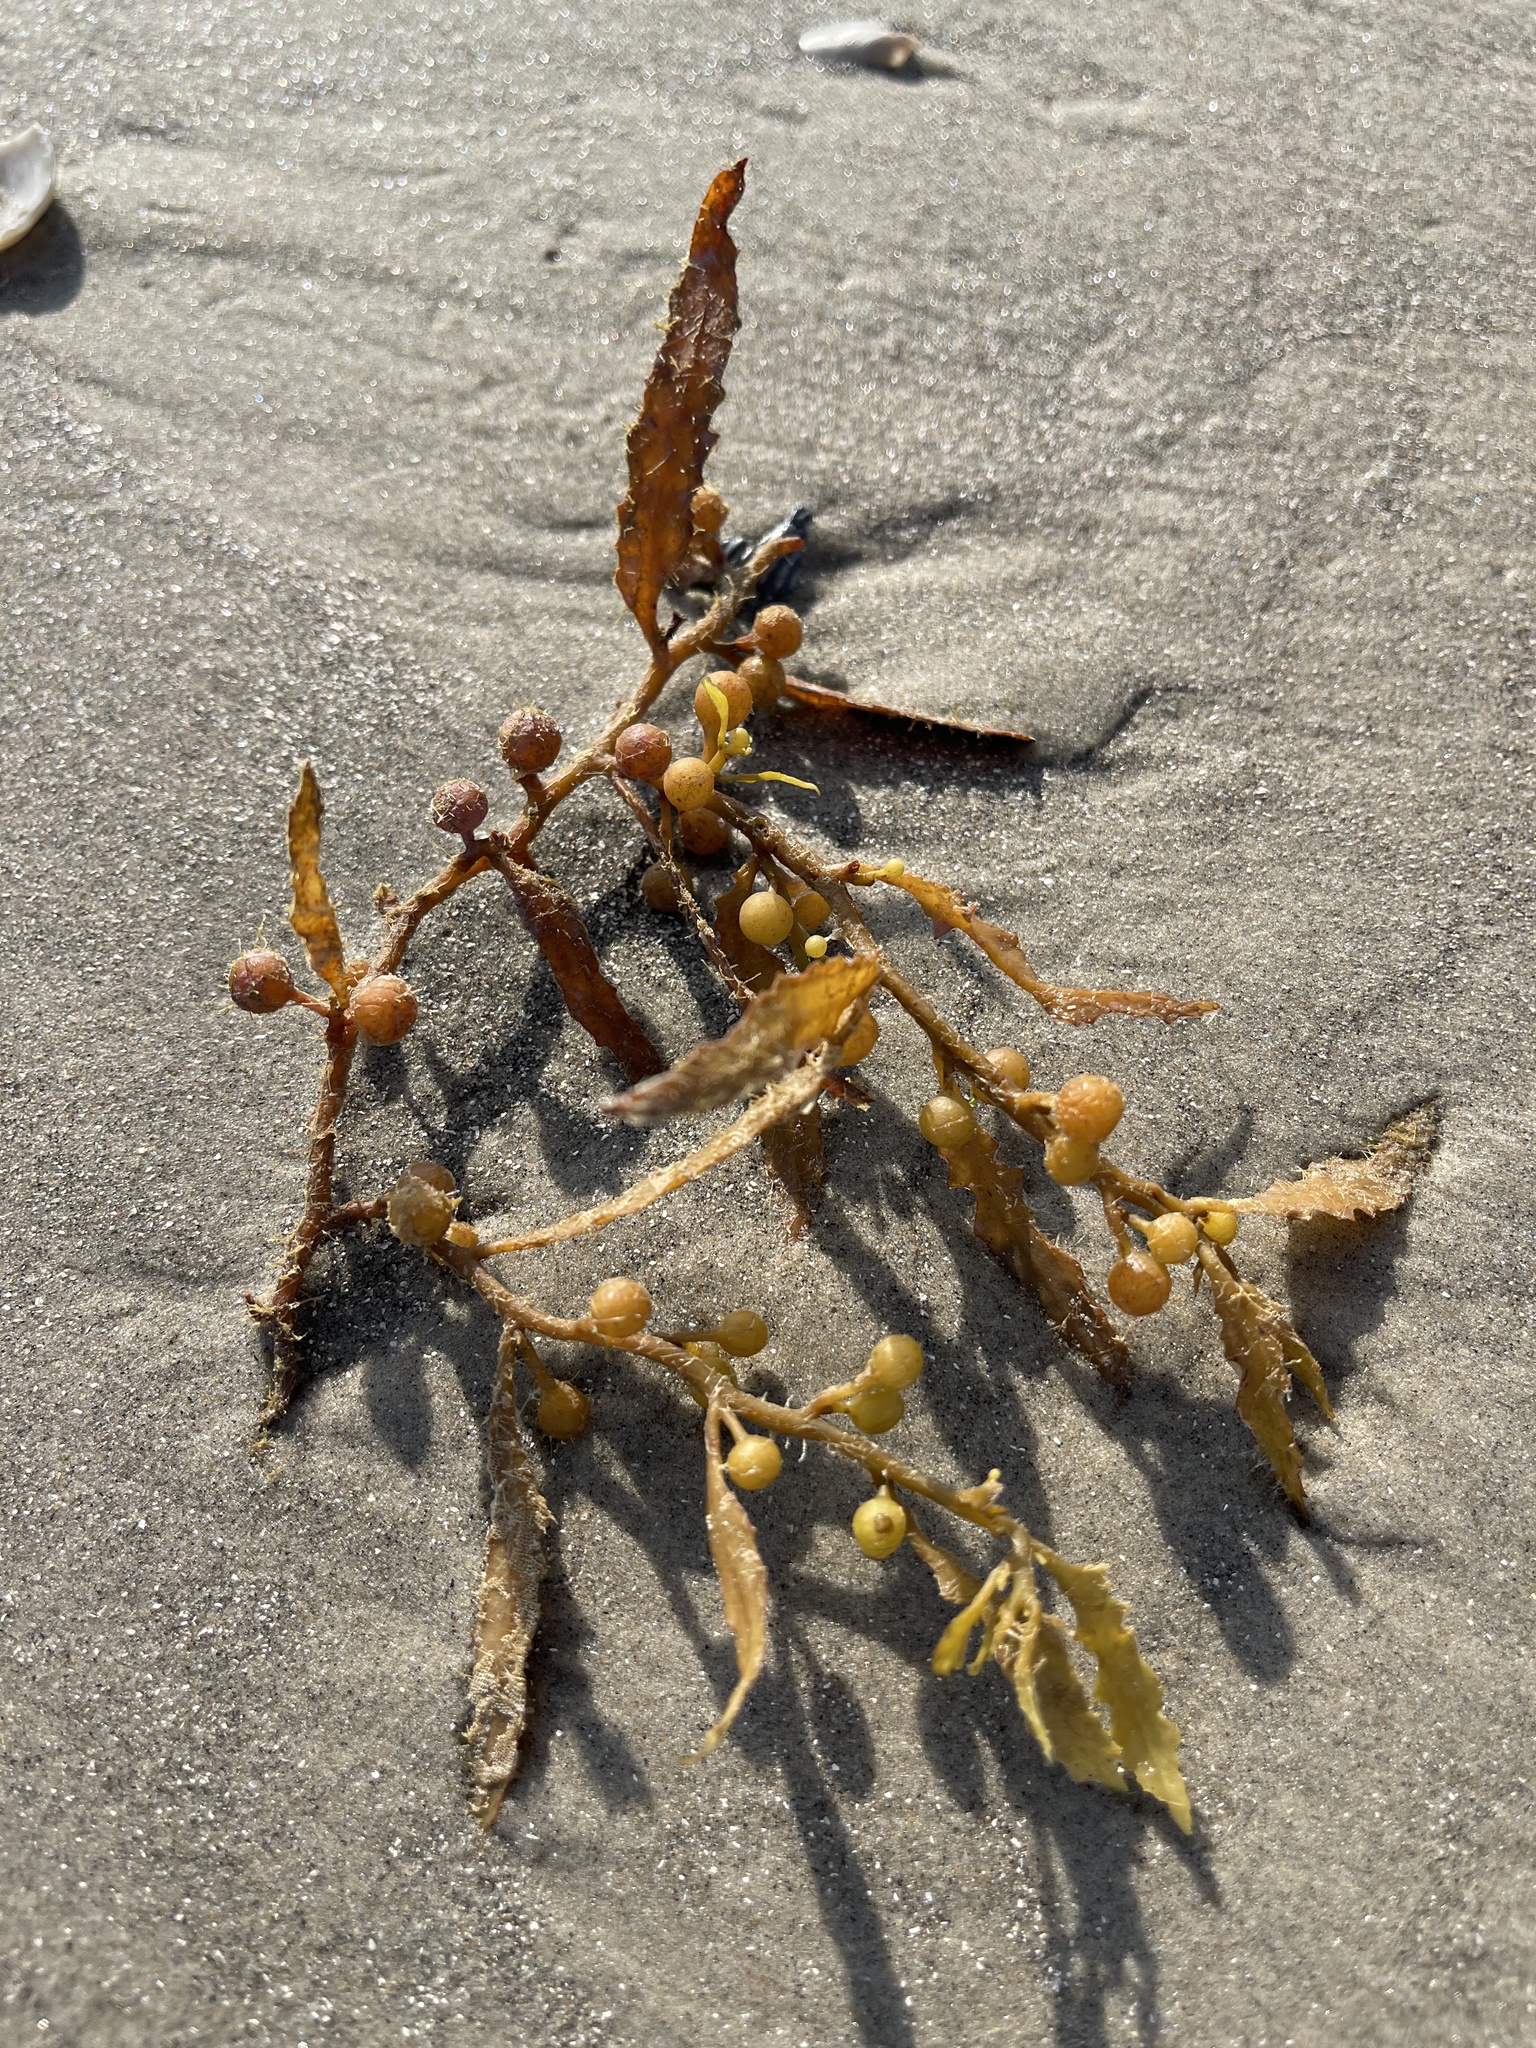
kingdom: Chromista
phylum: Ochrophyta
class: Phaeophyceae
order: Fucales
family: Sargassaceae
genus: Sargassum
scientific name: Sargassum fluitans
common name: Sargassum seaweed
